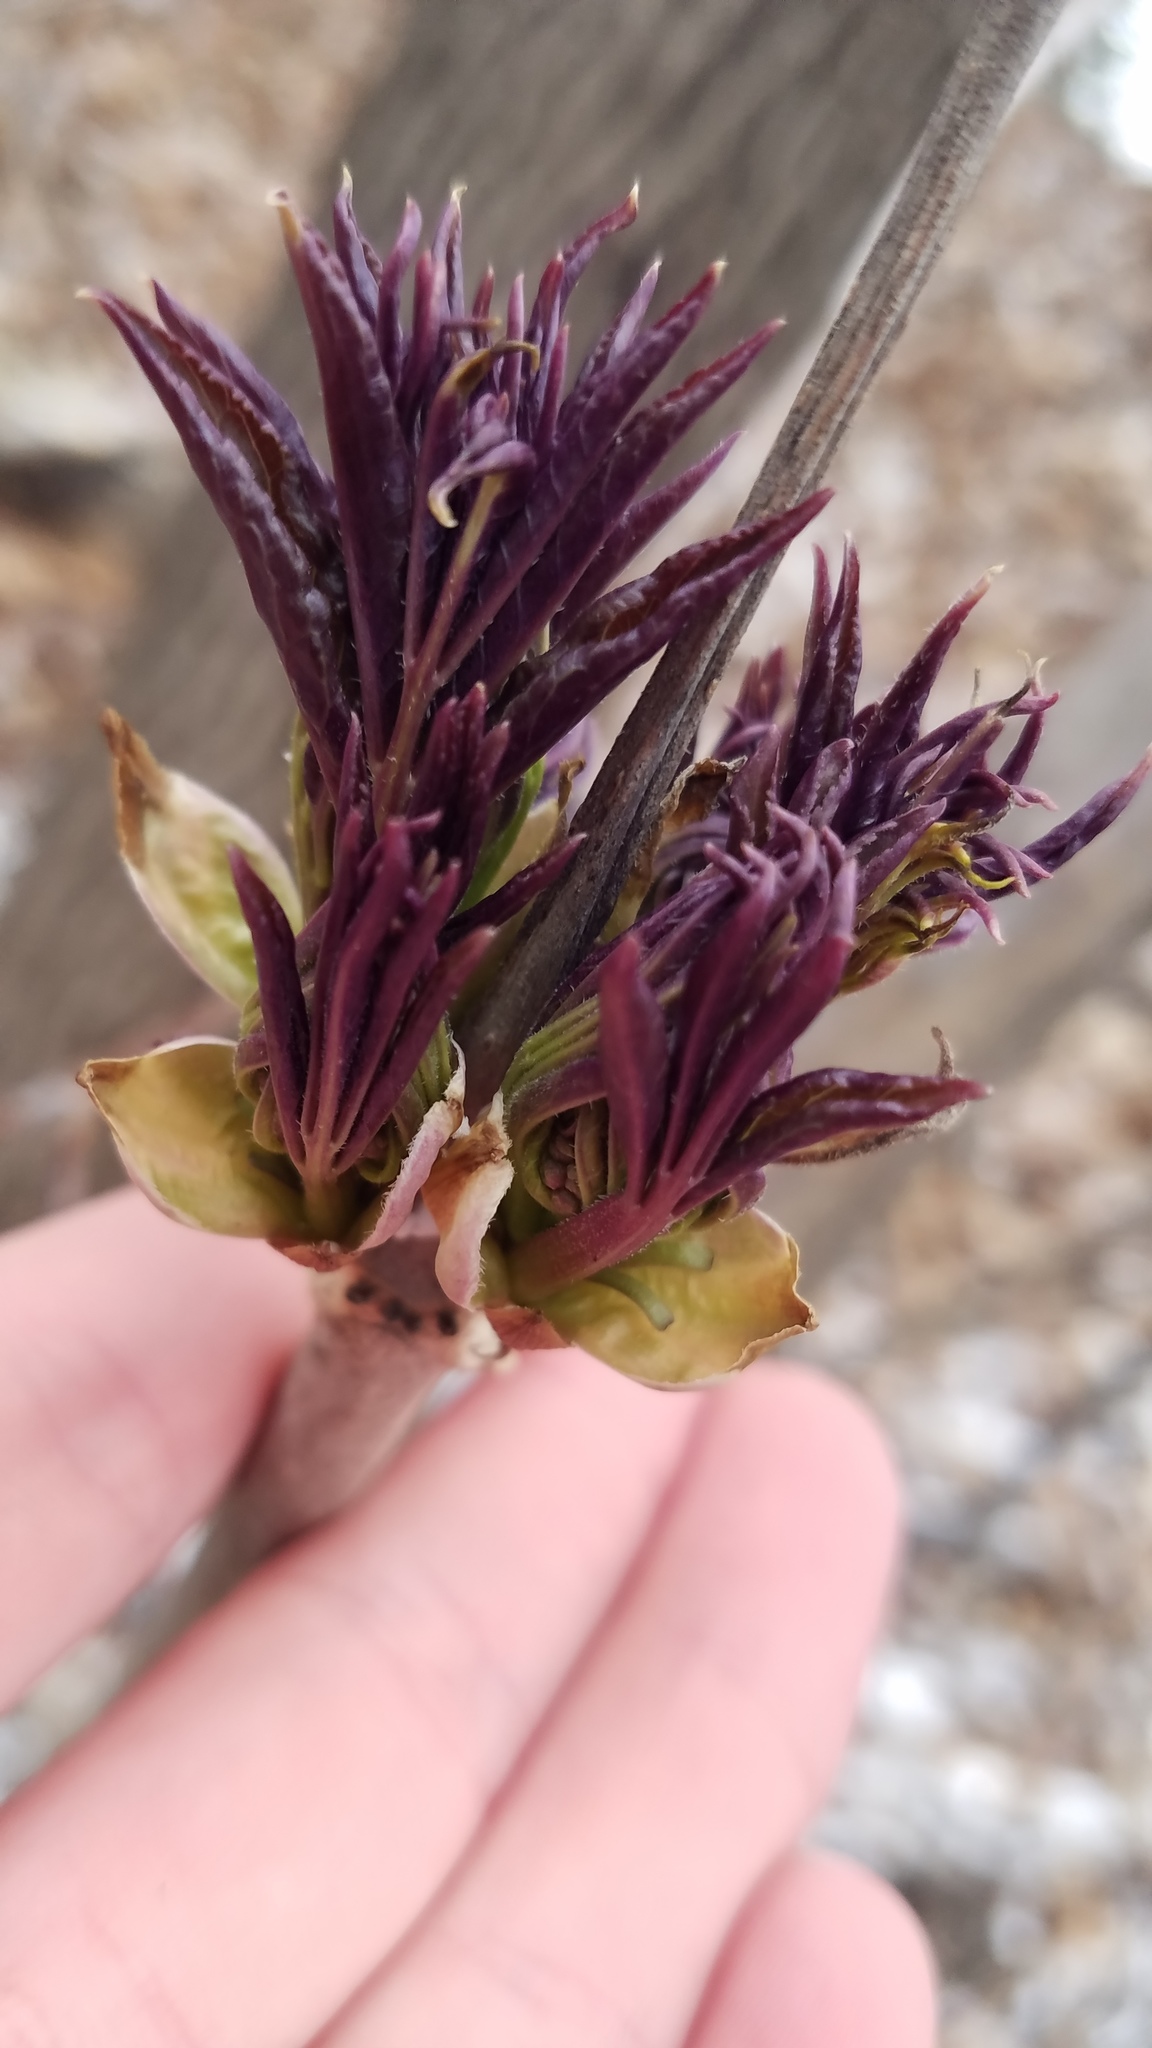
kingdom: Plantae
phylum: Tracheophyta
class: Magnoliopsida
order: Dipsacales
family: Viburnaceae
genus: Sambucus
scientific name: Sambucus racemosa
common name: Red-berried elder
